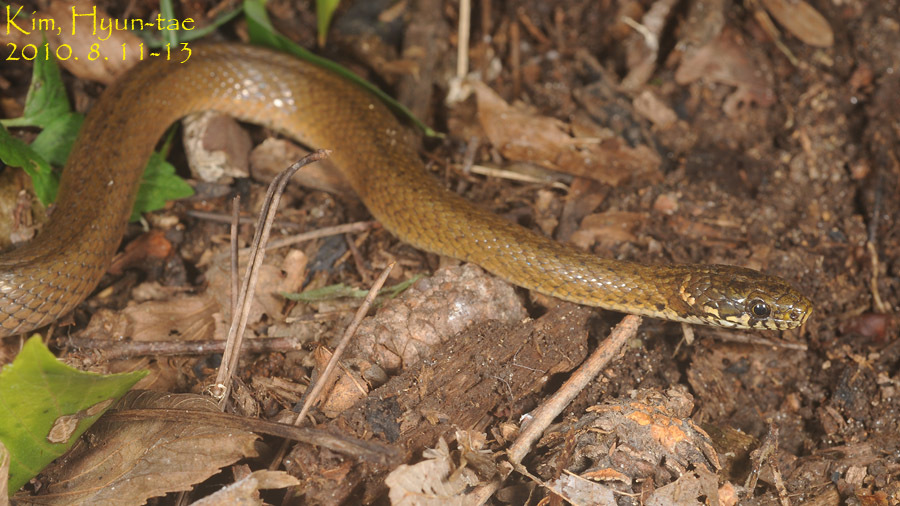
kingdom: Animalia
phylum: Chordata
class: Squamata
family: Colubridae
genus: Hebius
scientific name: Hebius vibakari
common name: Japanese keelback
